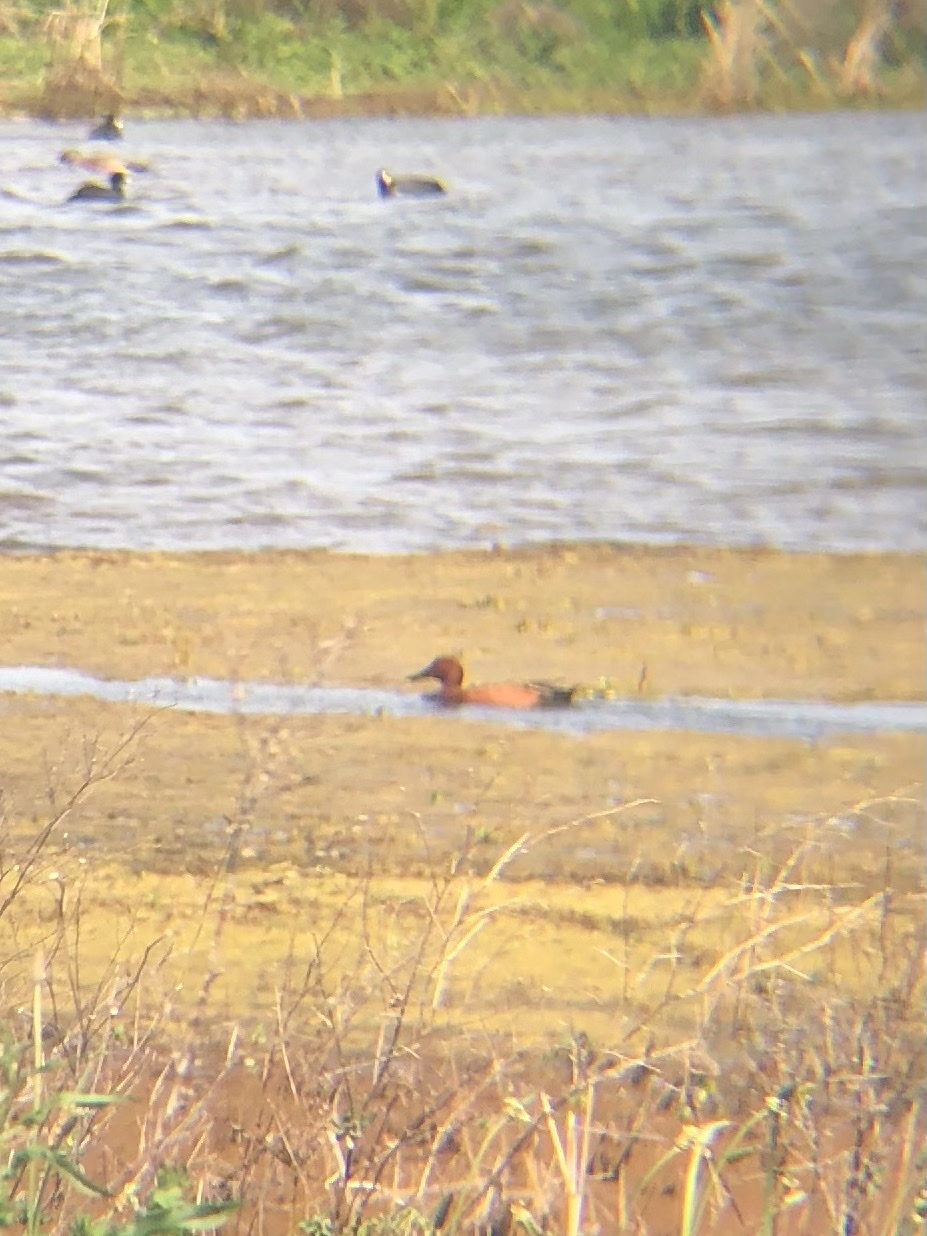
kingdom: Animalia
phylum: Chordata
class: Aves
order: Anseriformes
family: Anatidae
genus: Spatula
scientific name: Spatula cyanoptera
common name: Cinnamon teal
